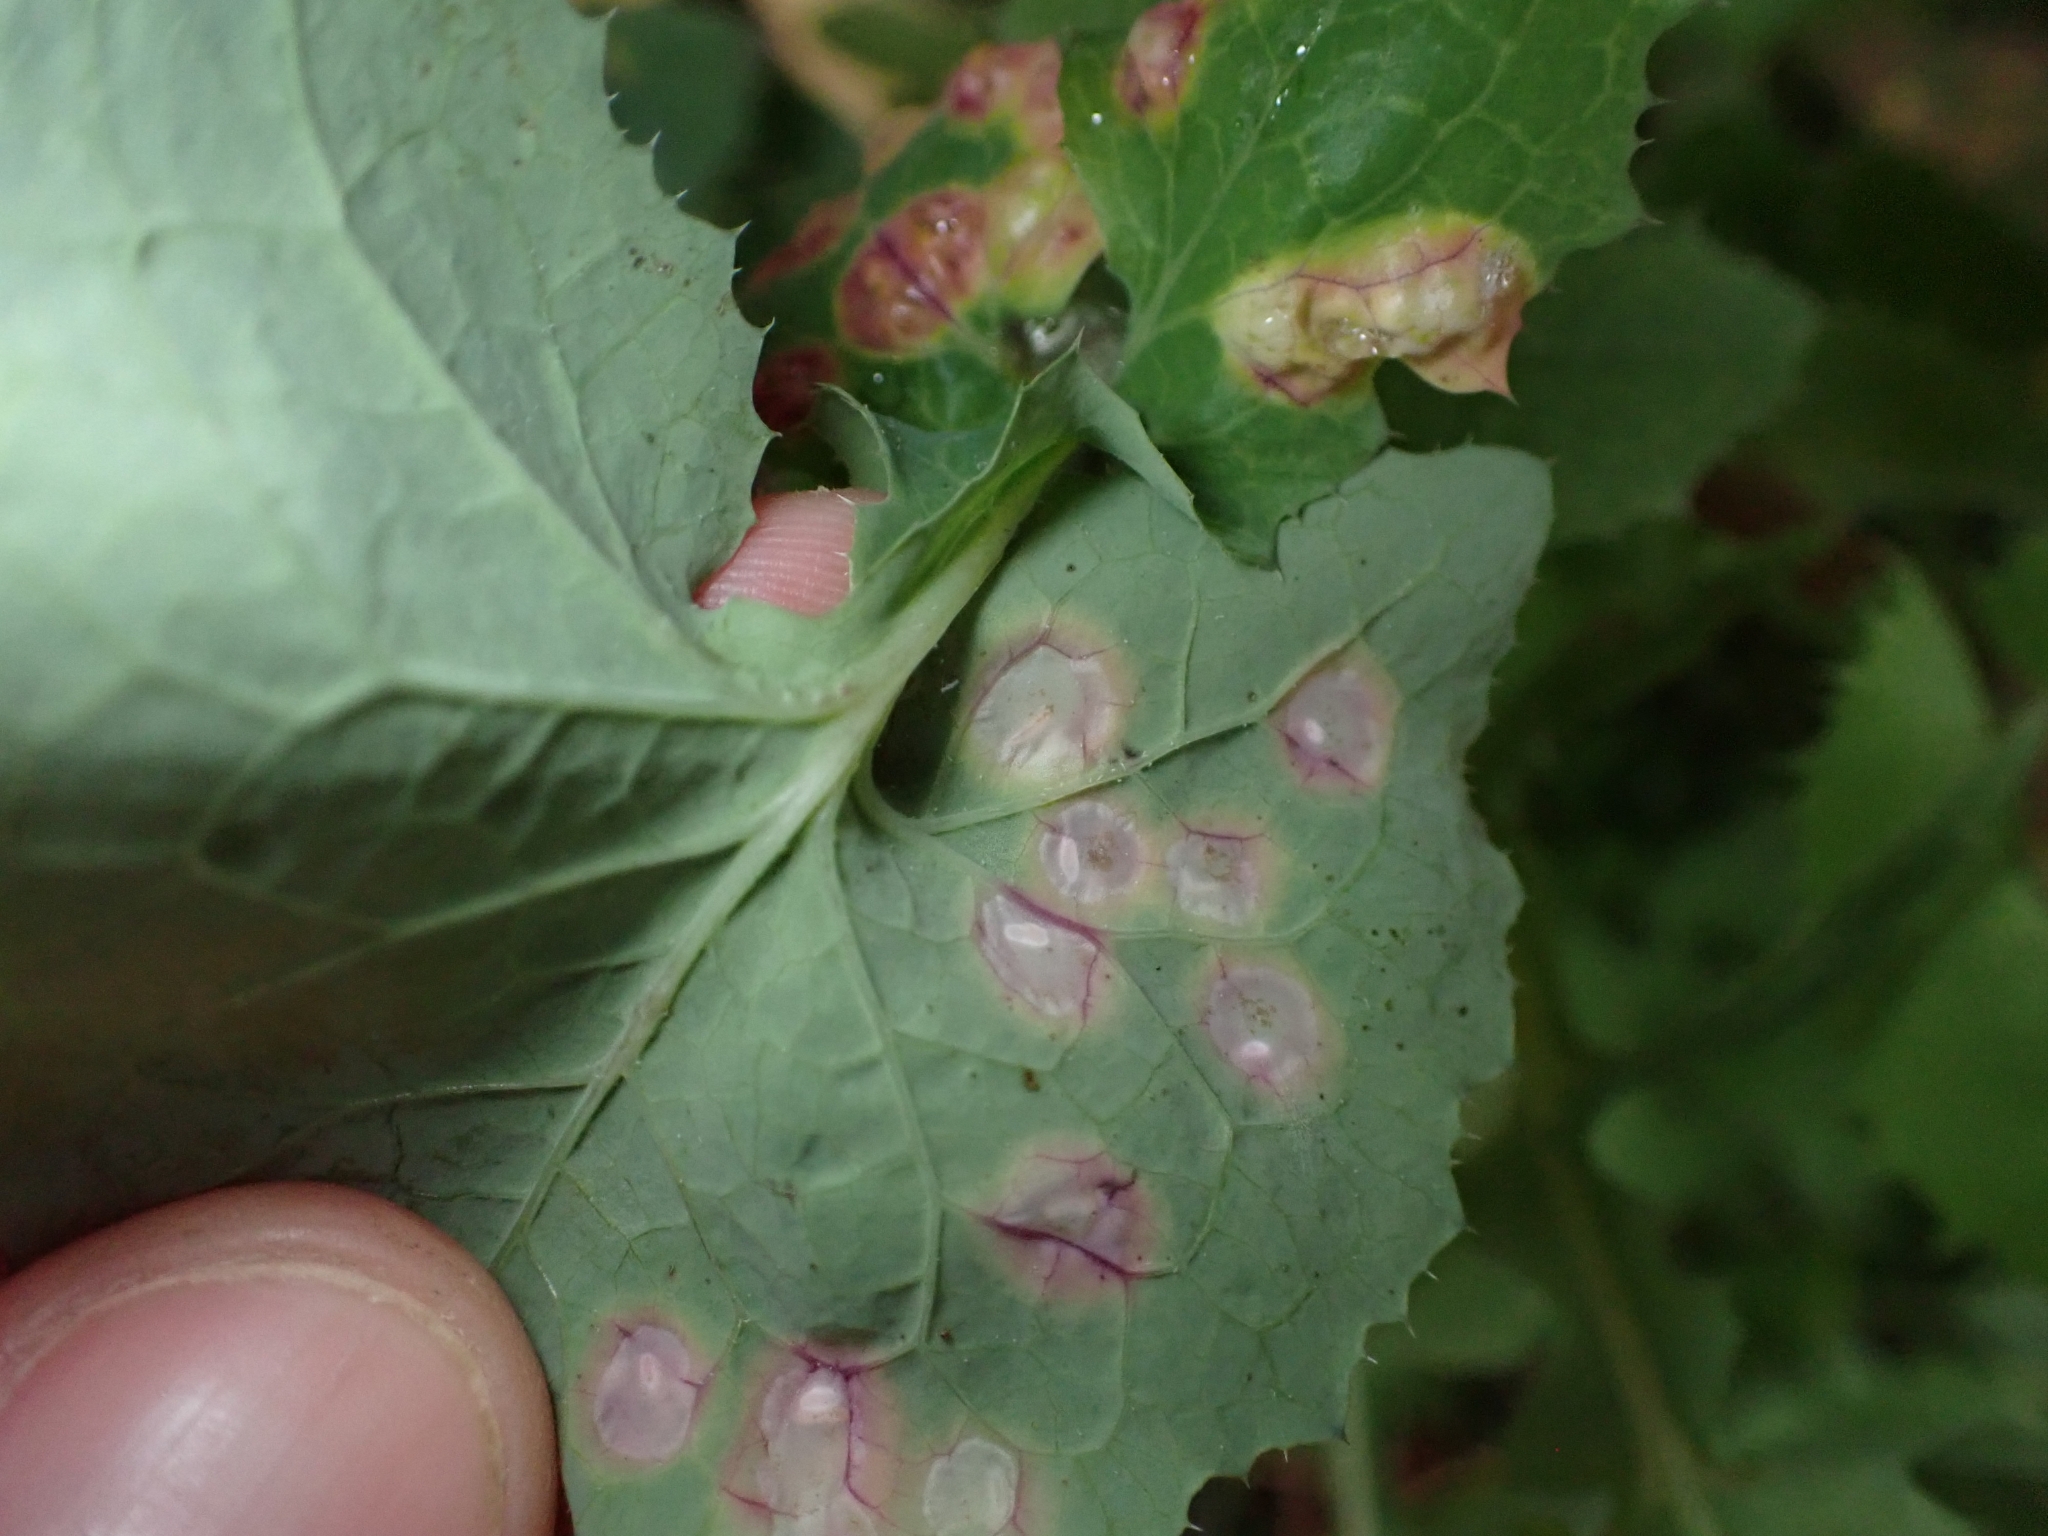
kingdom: Animalia
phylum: Arthropoda
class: Insecta
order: Diptera
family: Cecidomyiidae
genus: Cystiphora
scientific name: Cystiphora sonchi
